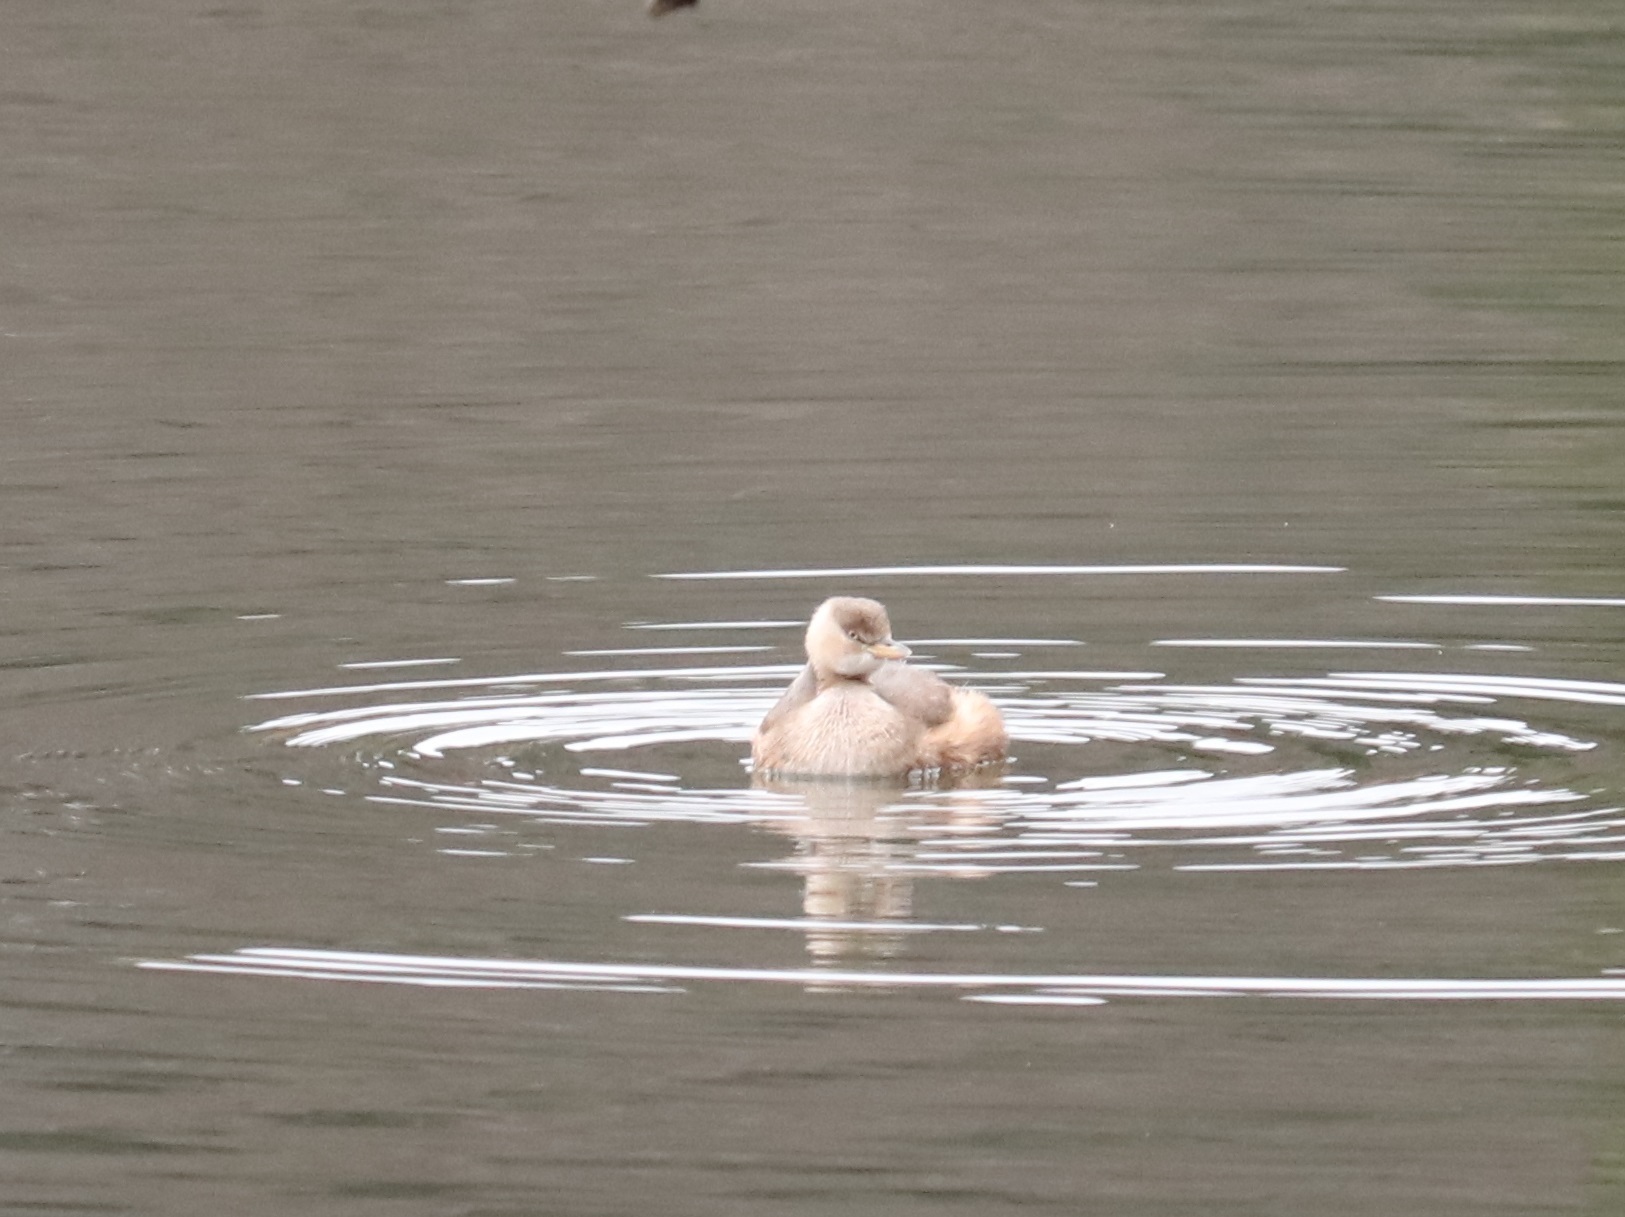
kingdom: Animalia
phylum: Chordata
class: Aves
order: Podicipediformes
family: Podicipedidae
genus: Tachybaptus
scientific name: Tachybaptus ruficollis
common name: Little grebe
